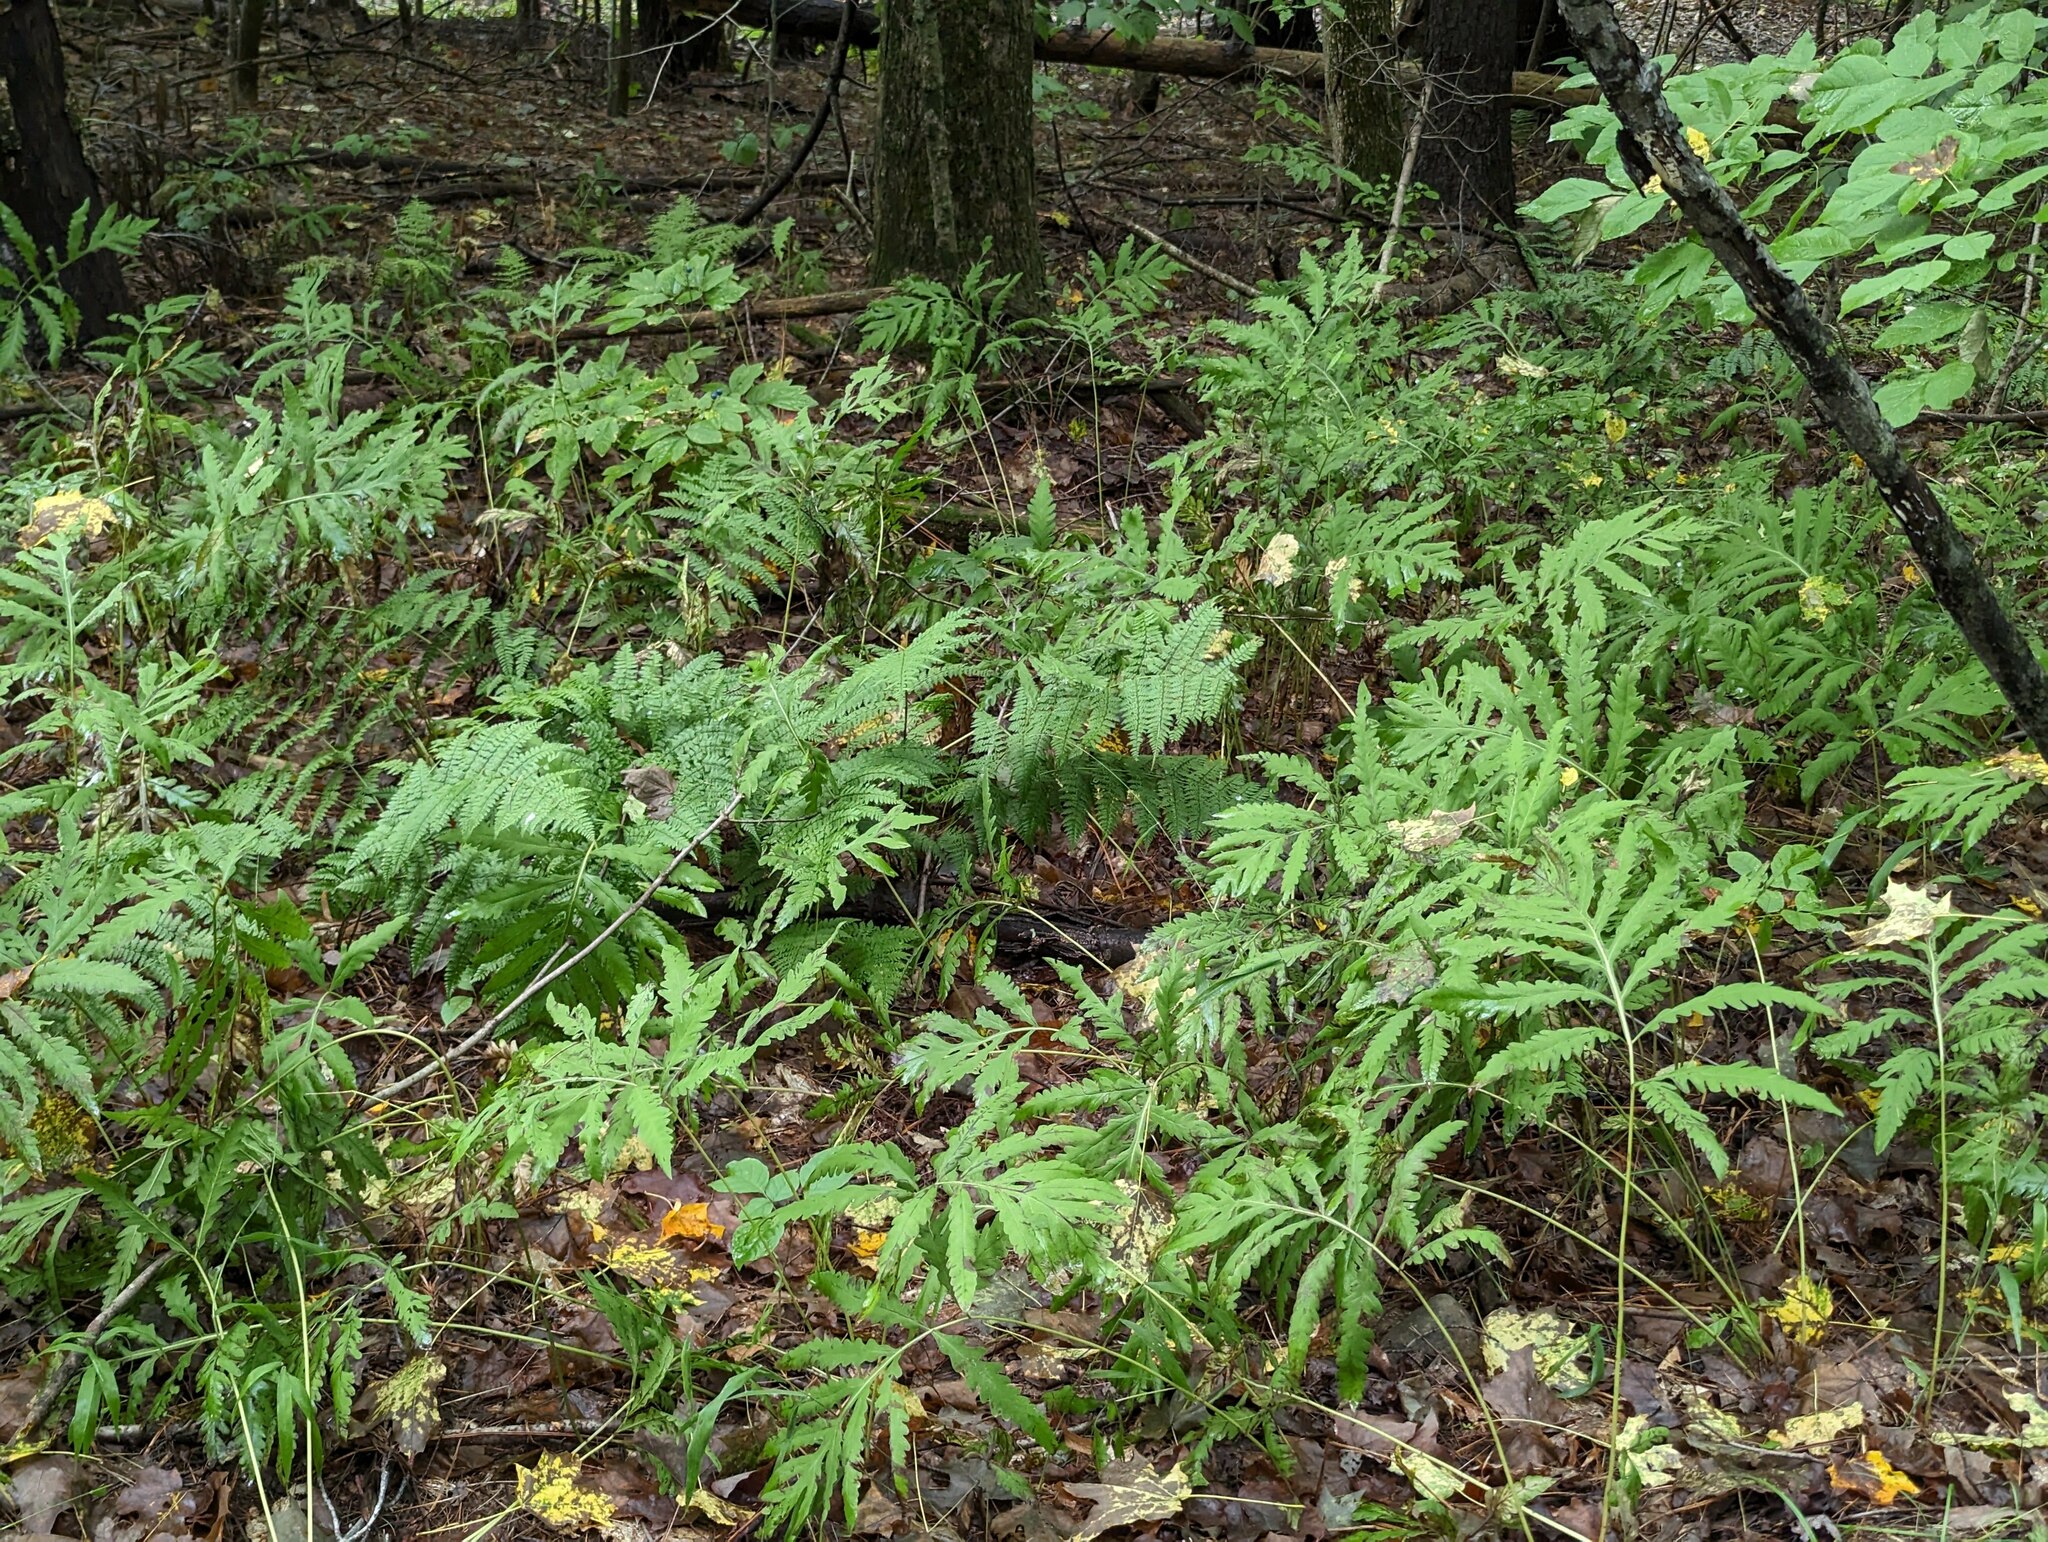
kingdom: Plantae
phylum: Tracheophyta
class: Polypodiopsida
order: Polypodiales
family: Onocleaceae
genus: Onoclea
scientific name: Onoclea sensibilis
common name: Sensitive fern
